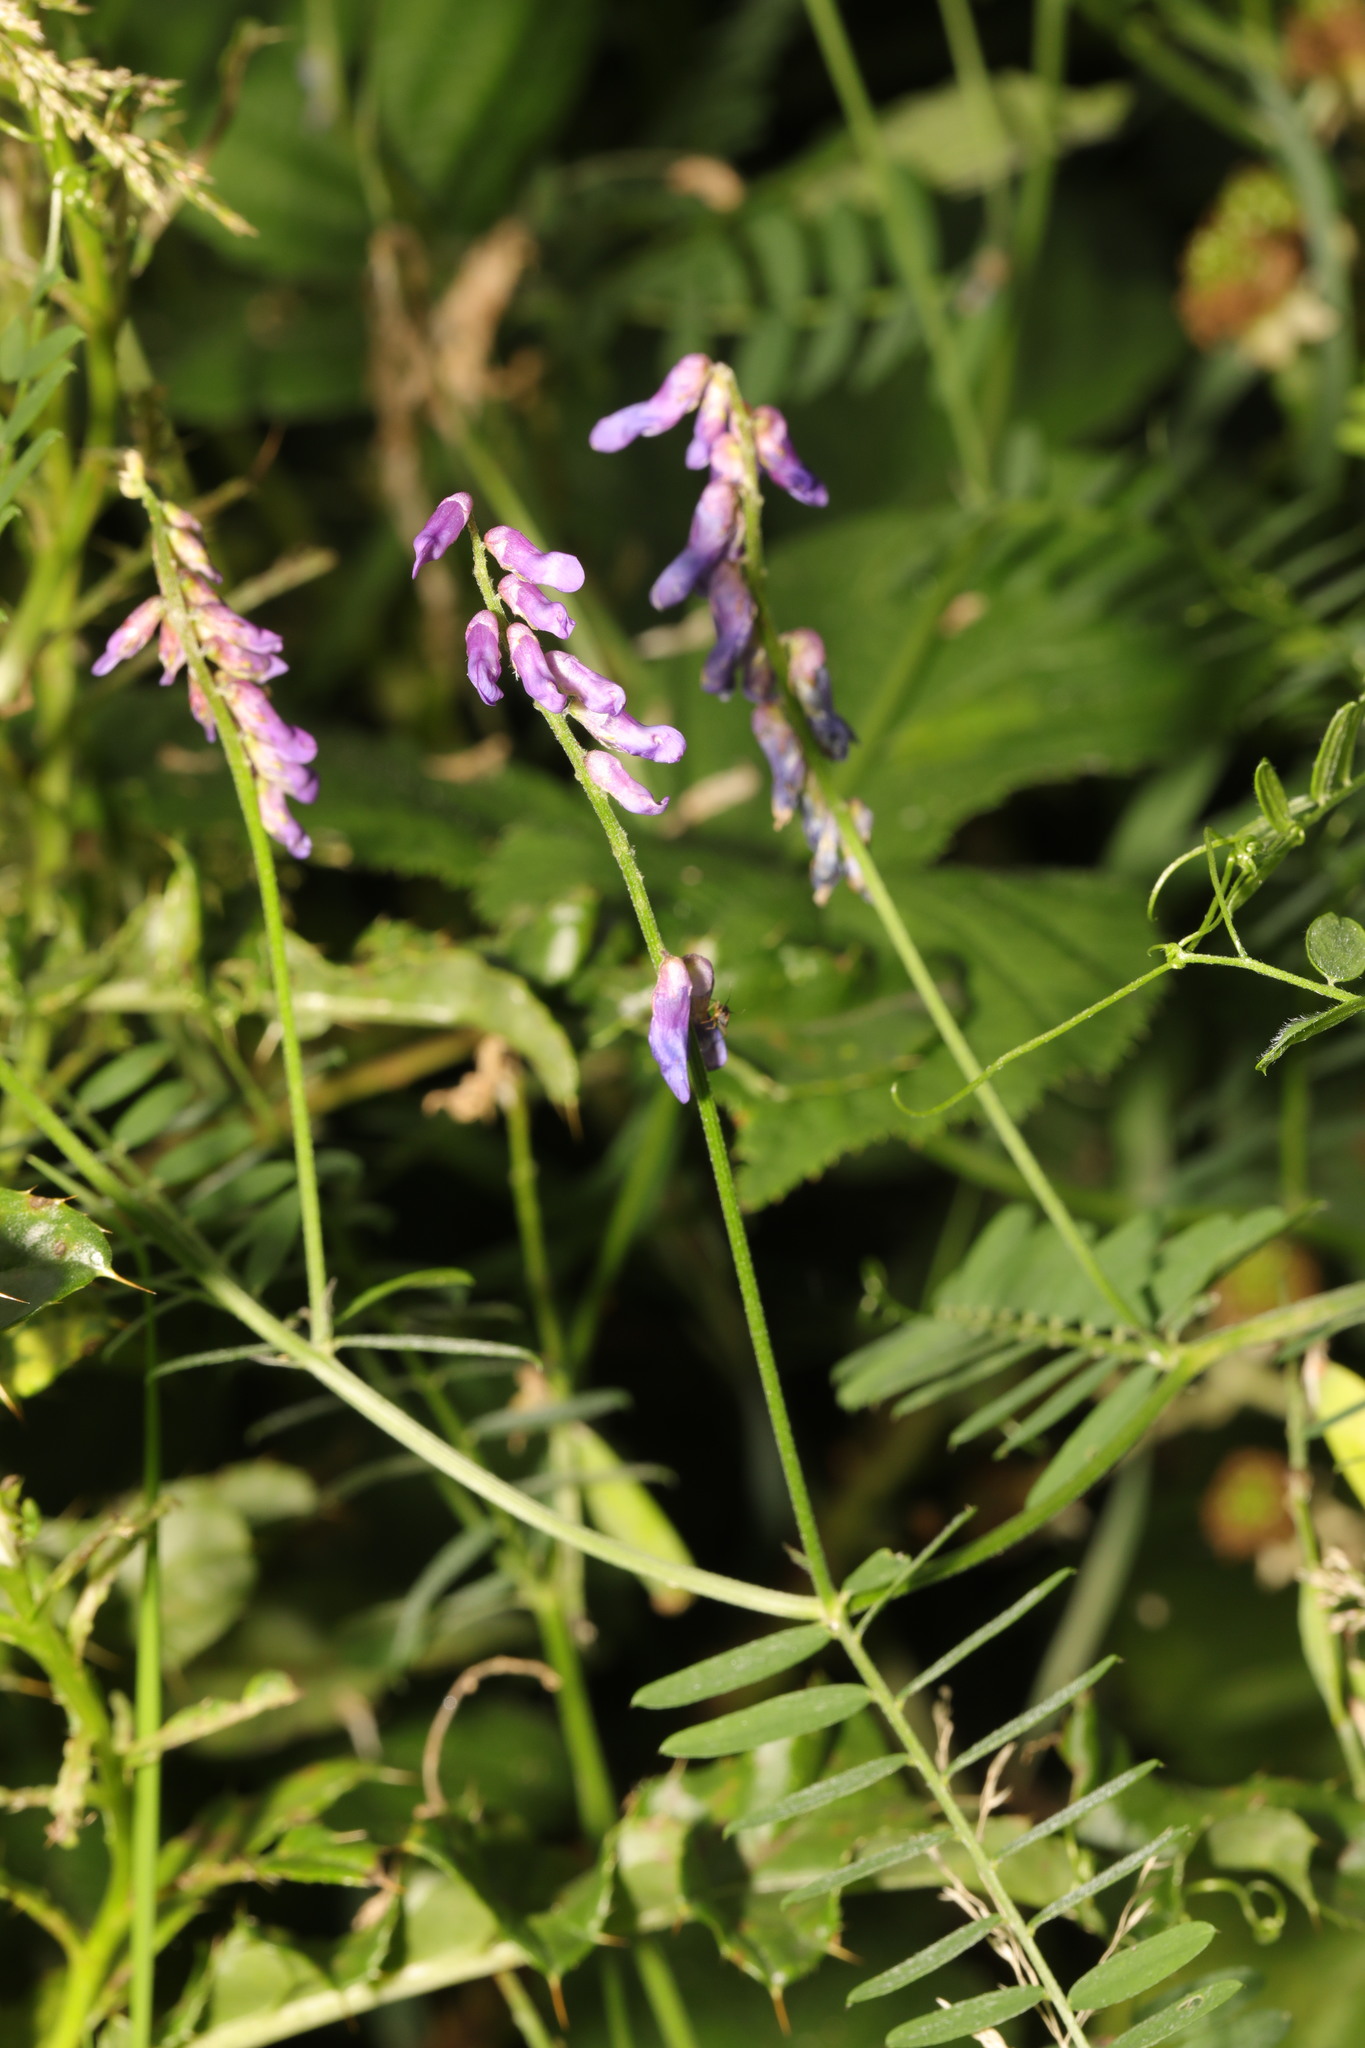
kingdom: Plantae
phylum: Tracheophyta
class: Magnoliopsida
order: Fabales
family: Fabaceae
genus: Vicia
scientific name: Vicia cracca
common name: Bird vetch
